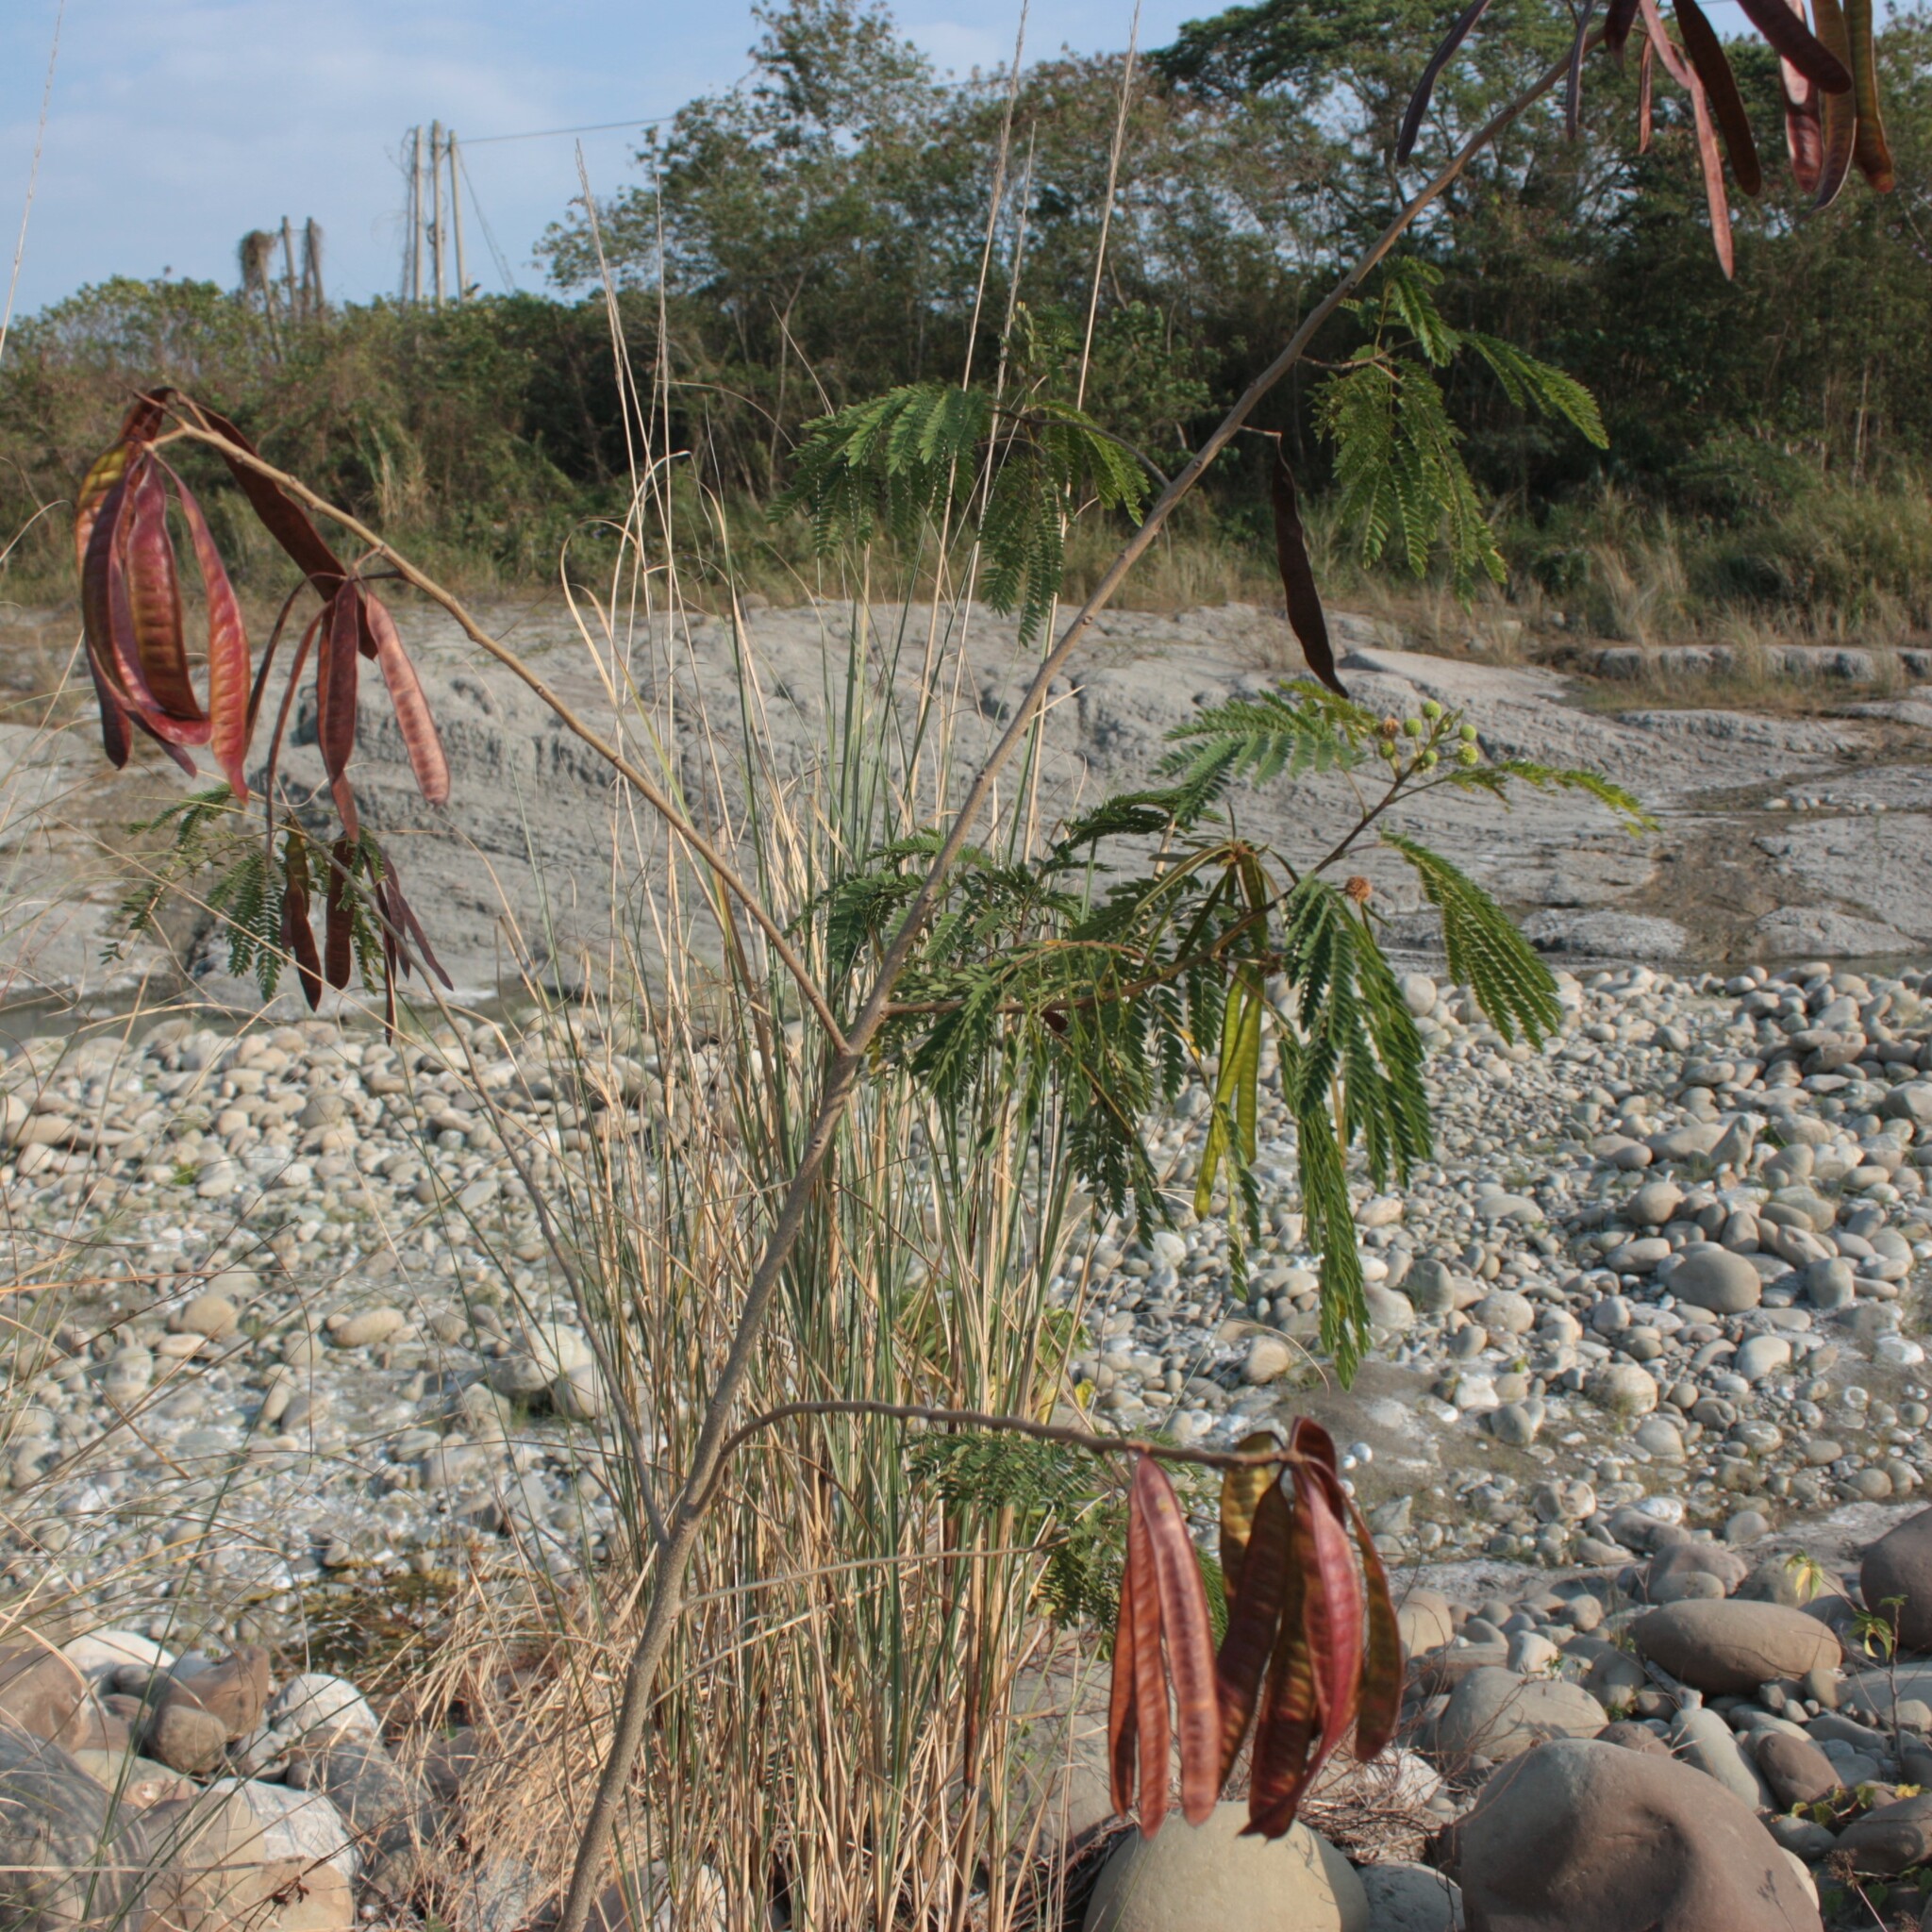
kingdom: Plantae
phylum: Tracheophyta
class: Magnoliopsida
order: Fabales
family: Fabaceae
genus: Leucaena
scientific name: Leucaena leucocephala
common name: White leadtree
